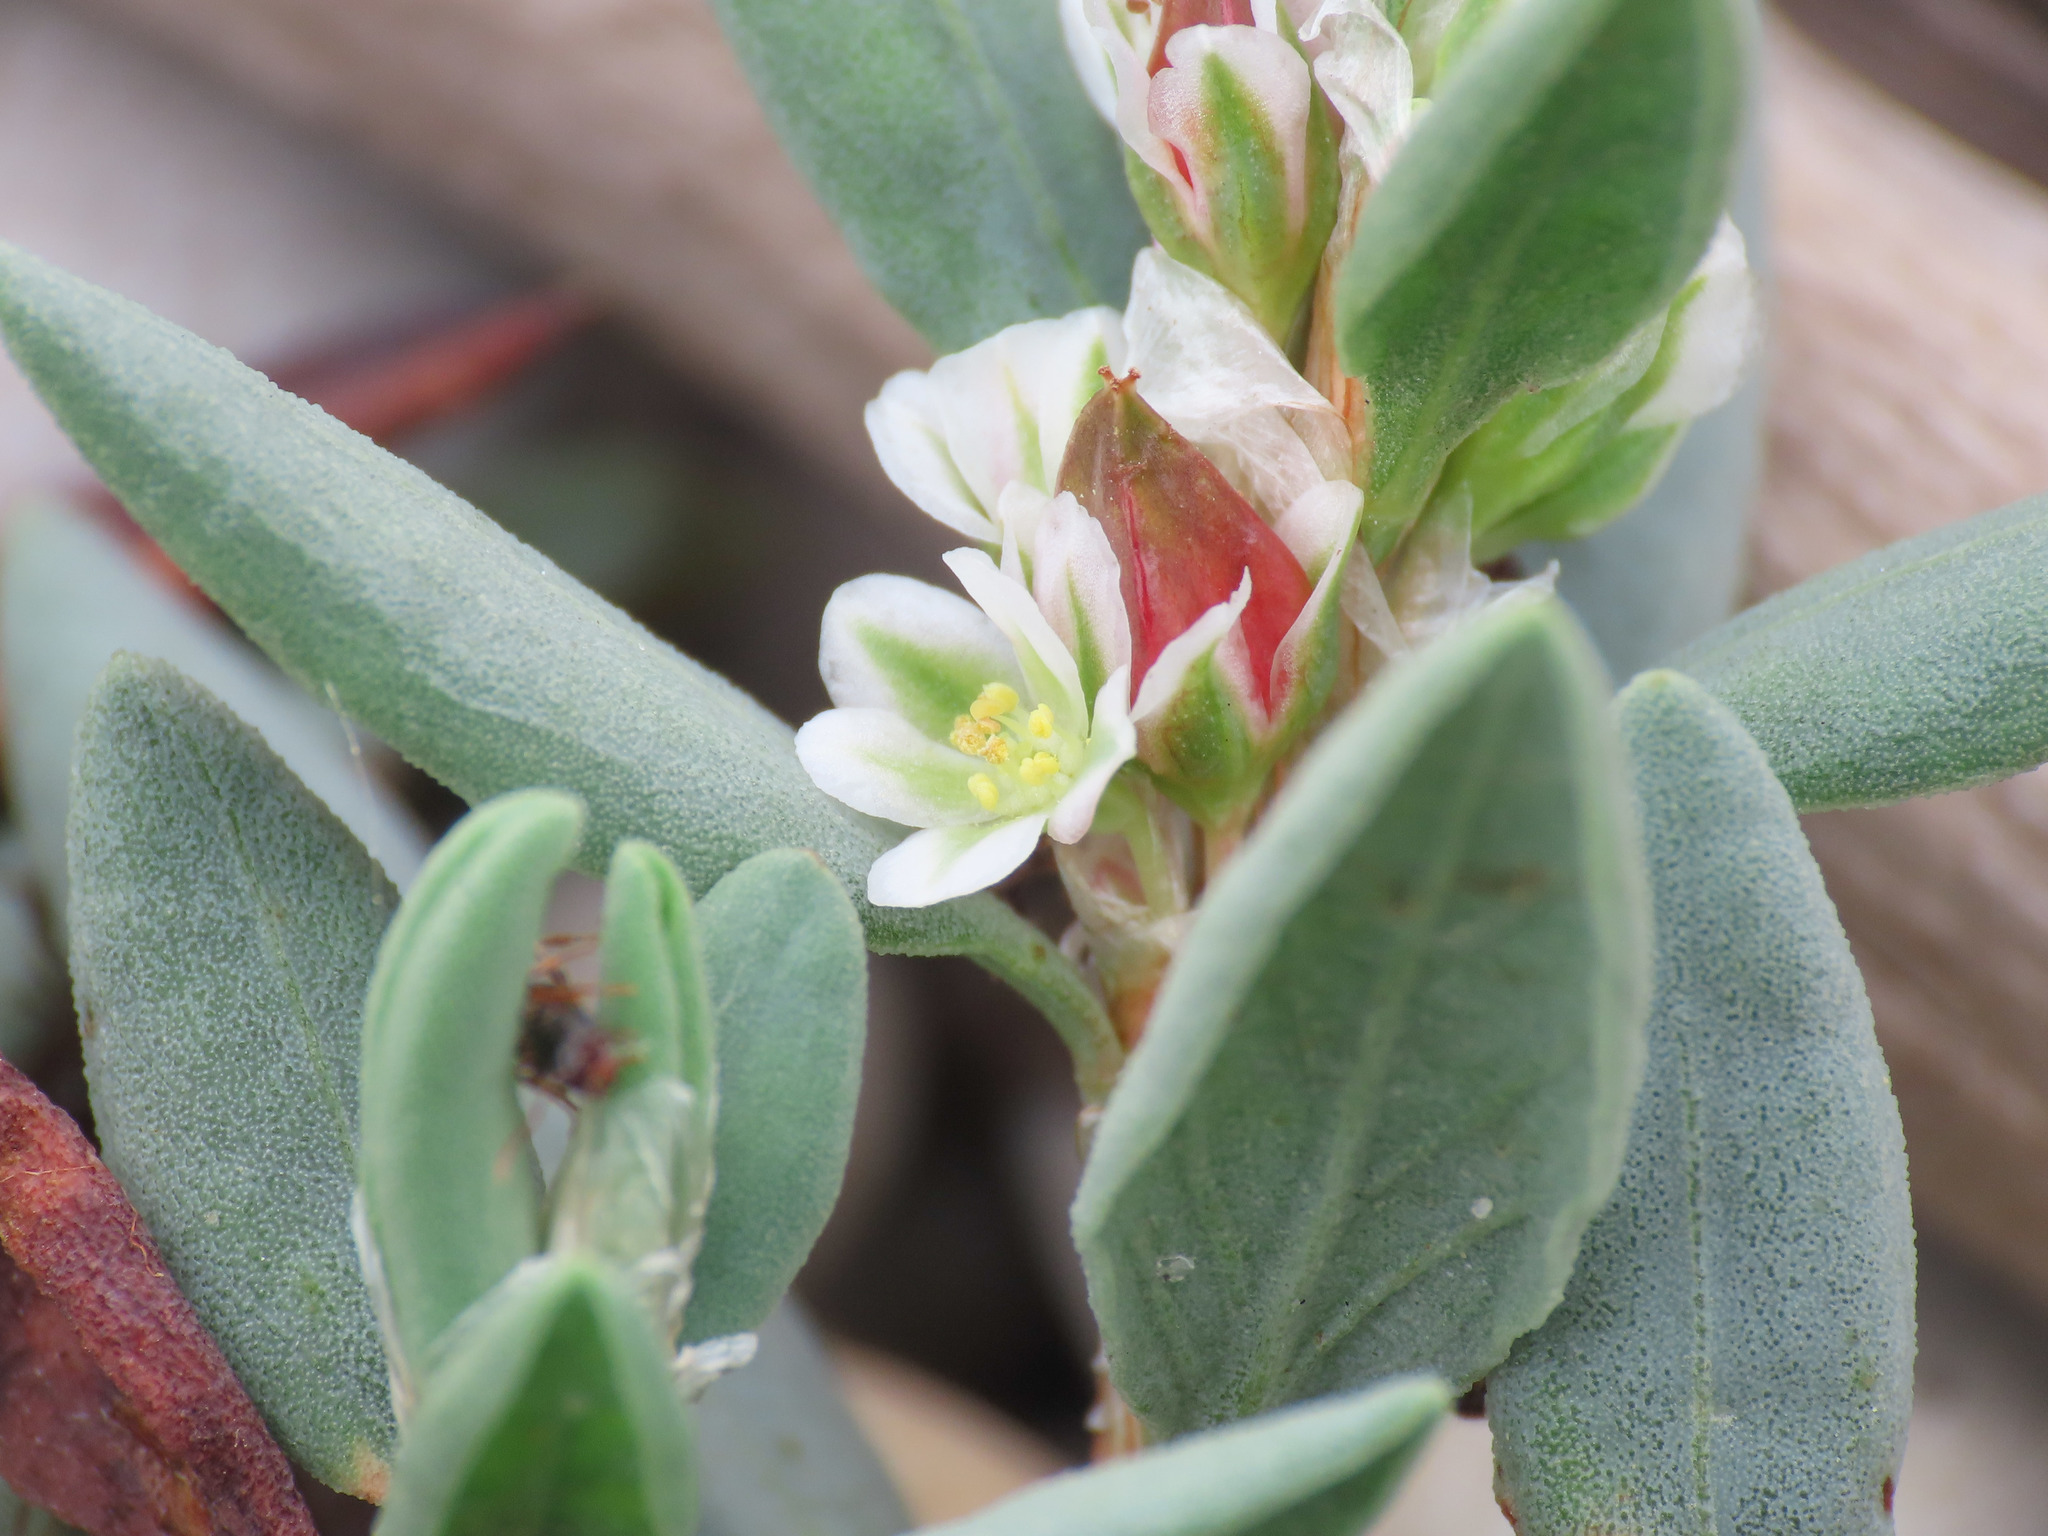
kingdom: Plantae
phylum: Tracheophyta
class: Magnoliopsida
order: Caryophyllales
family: Polygonaceae
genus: Polygonum
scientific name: Polygonum maritimum
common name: Sea knotgrass
